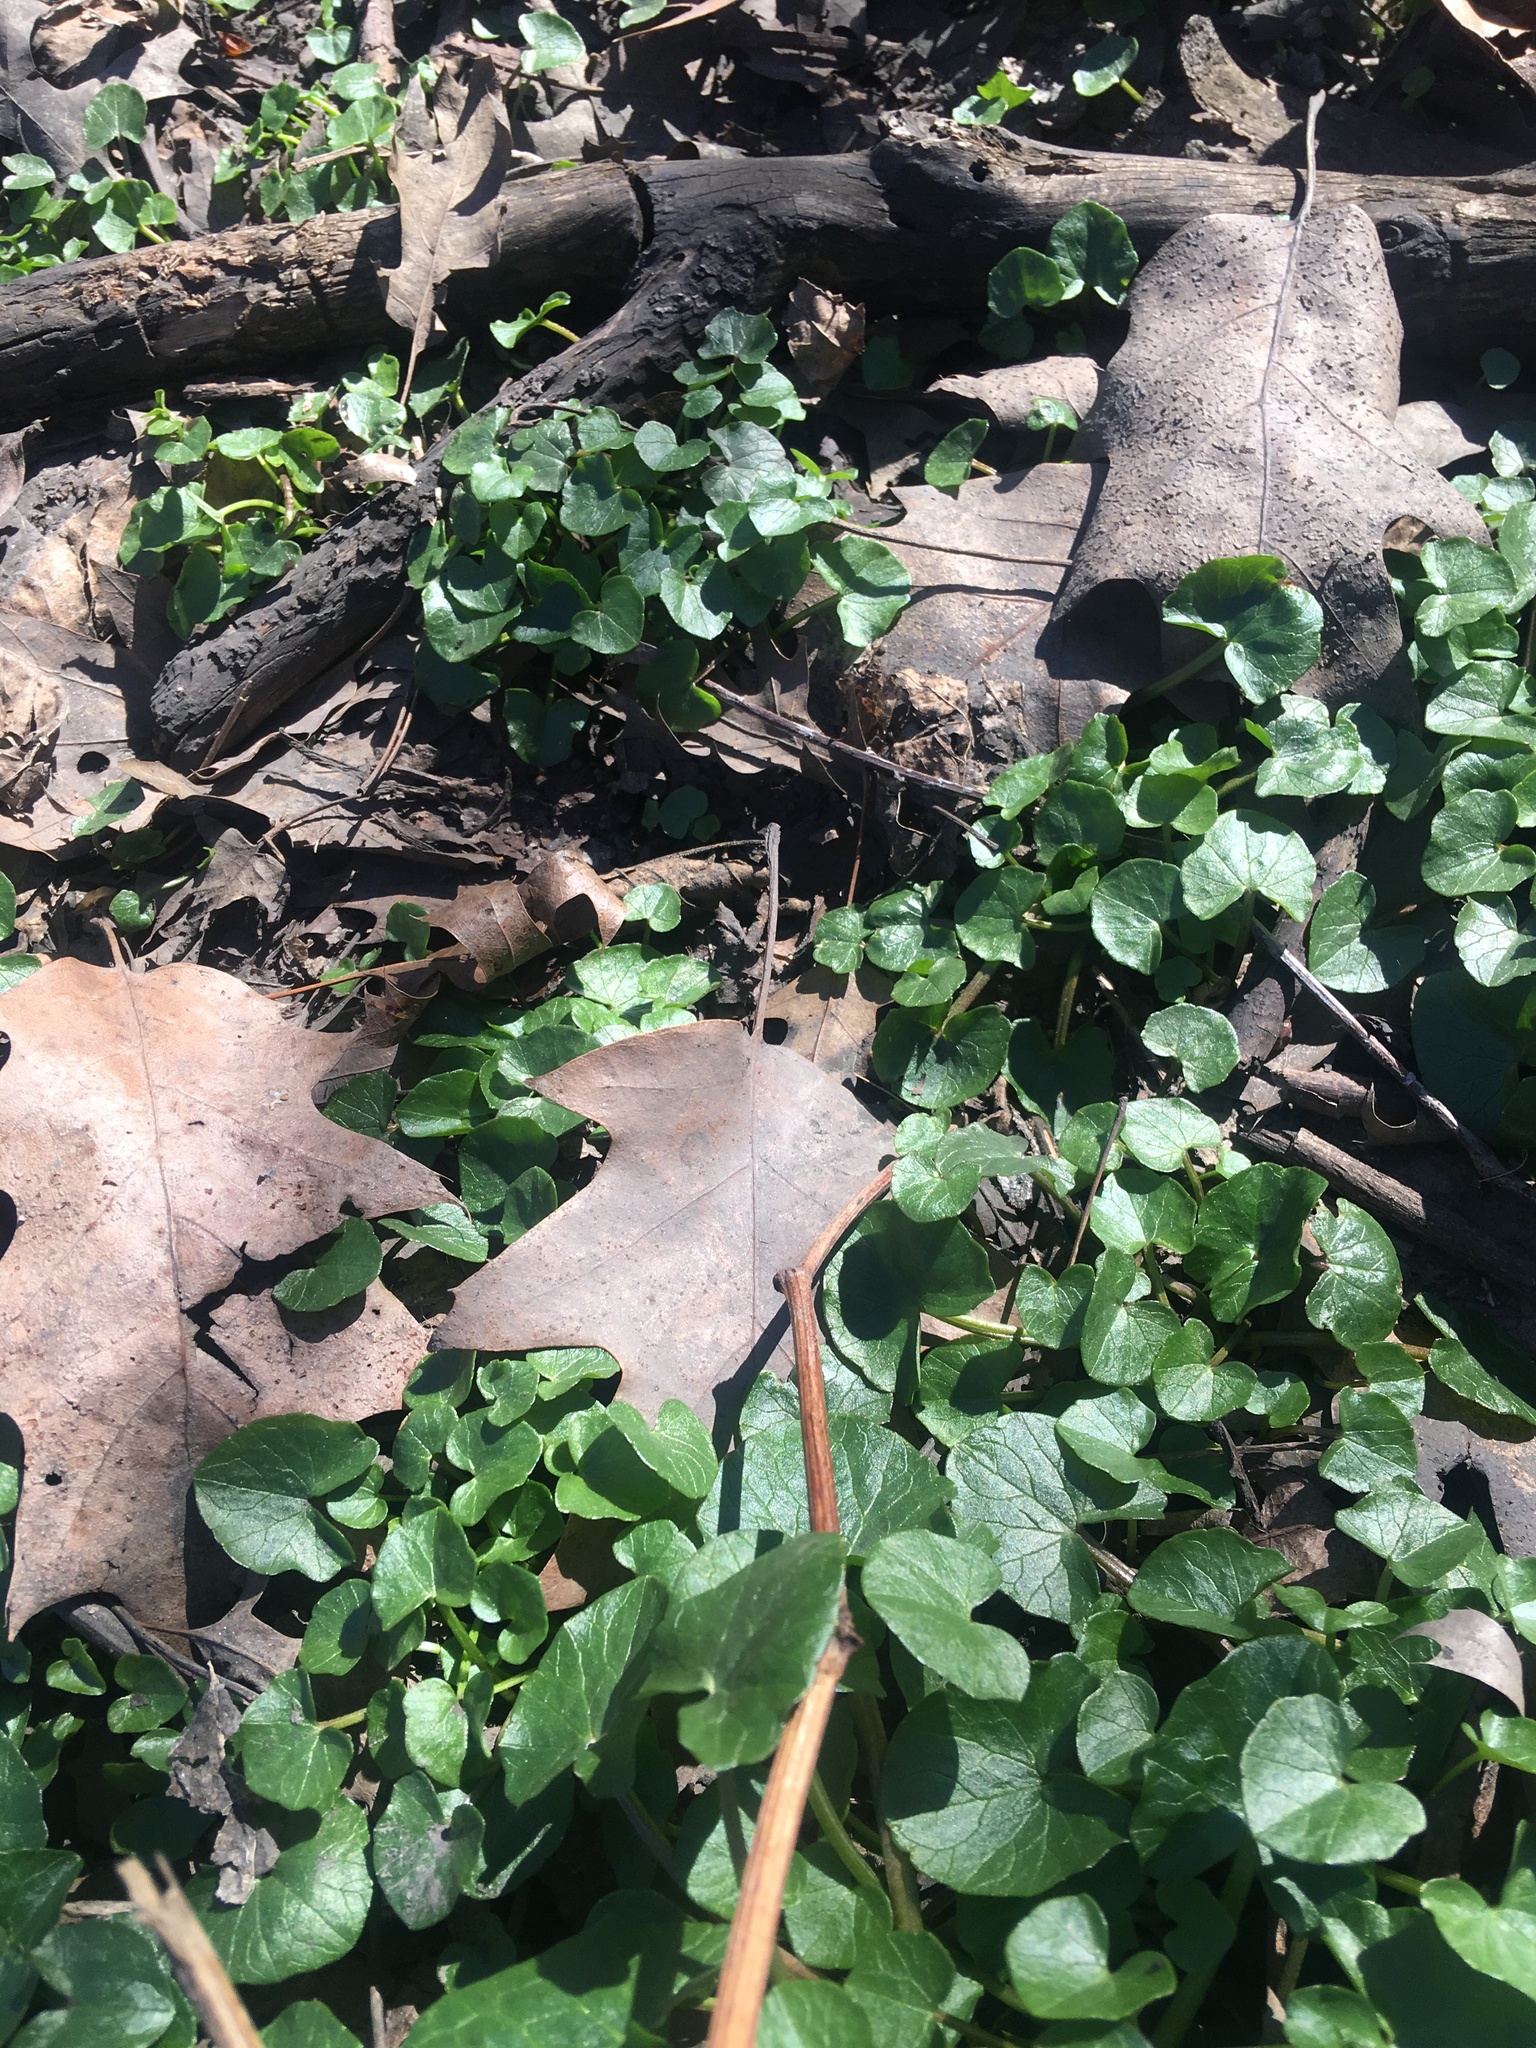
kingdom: Plantae
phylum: Tracheophyta
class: Magnoliopsida
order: Ranunculales
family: Ranunculaceae
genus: Ficaria
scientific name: Ficaria verna
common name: Lesser celandine
